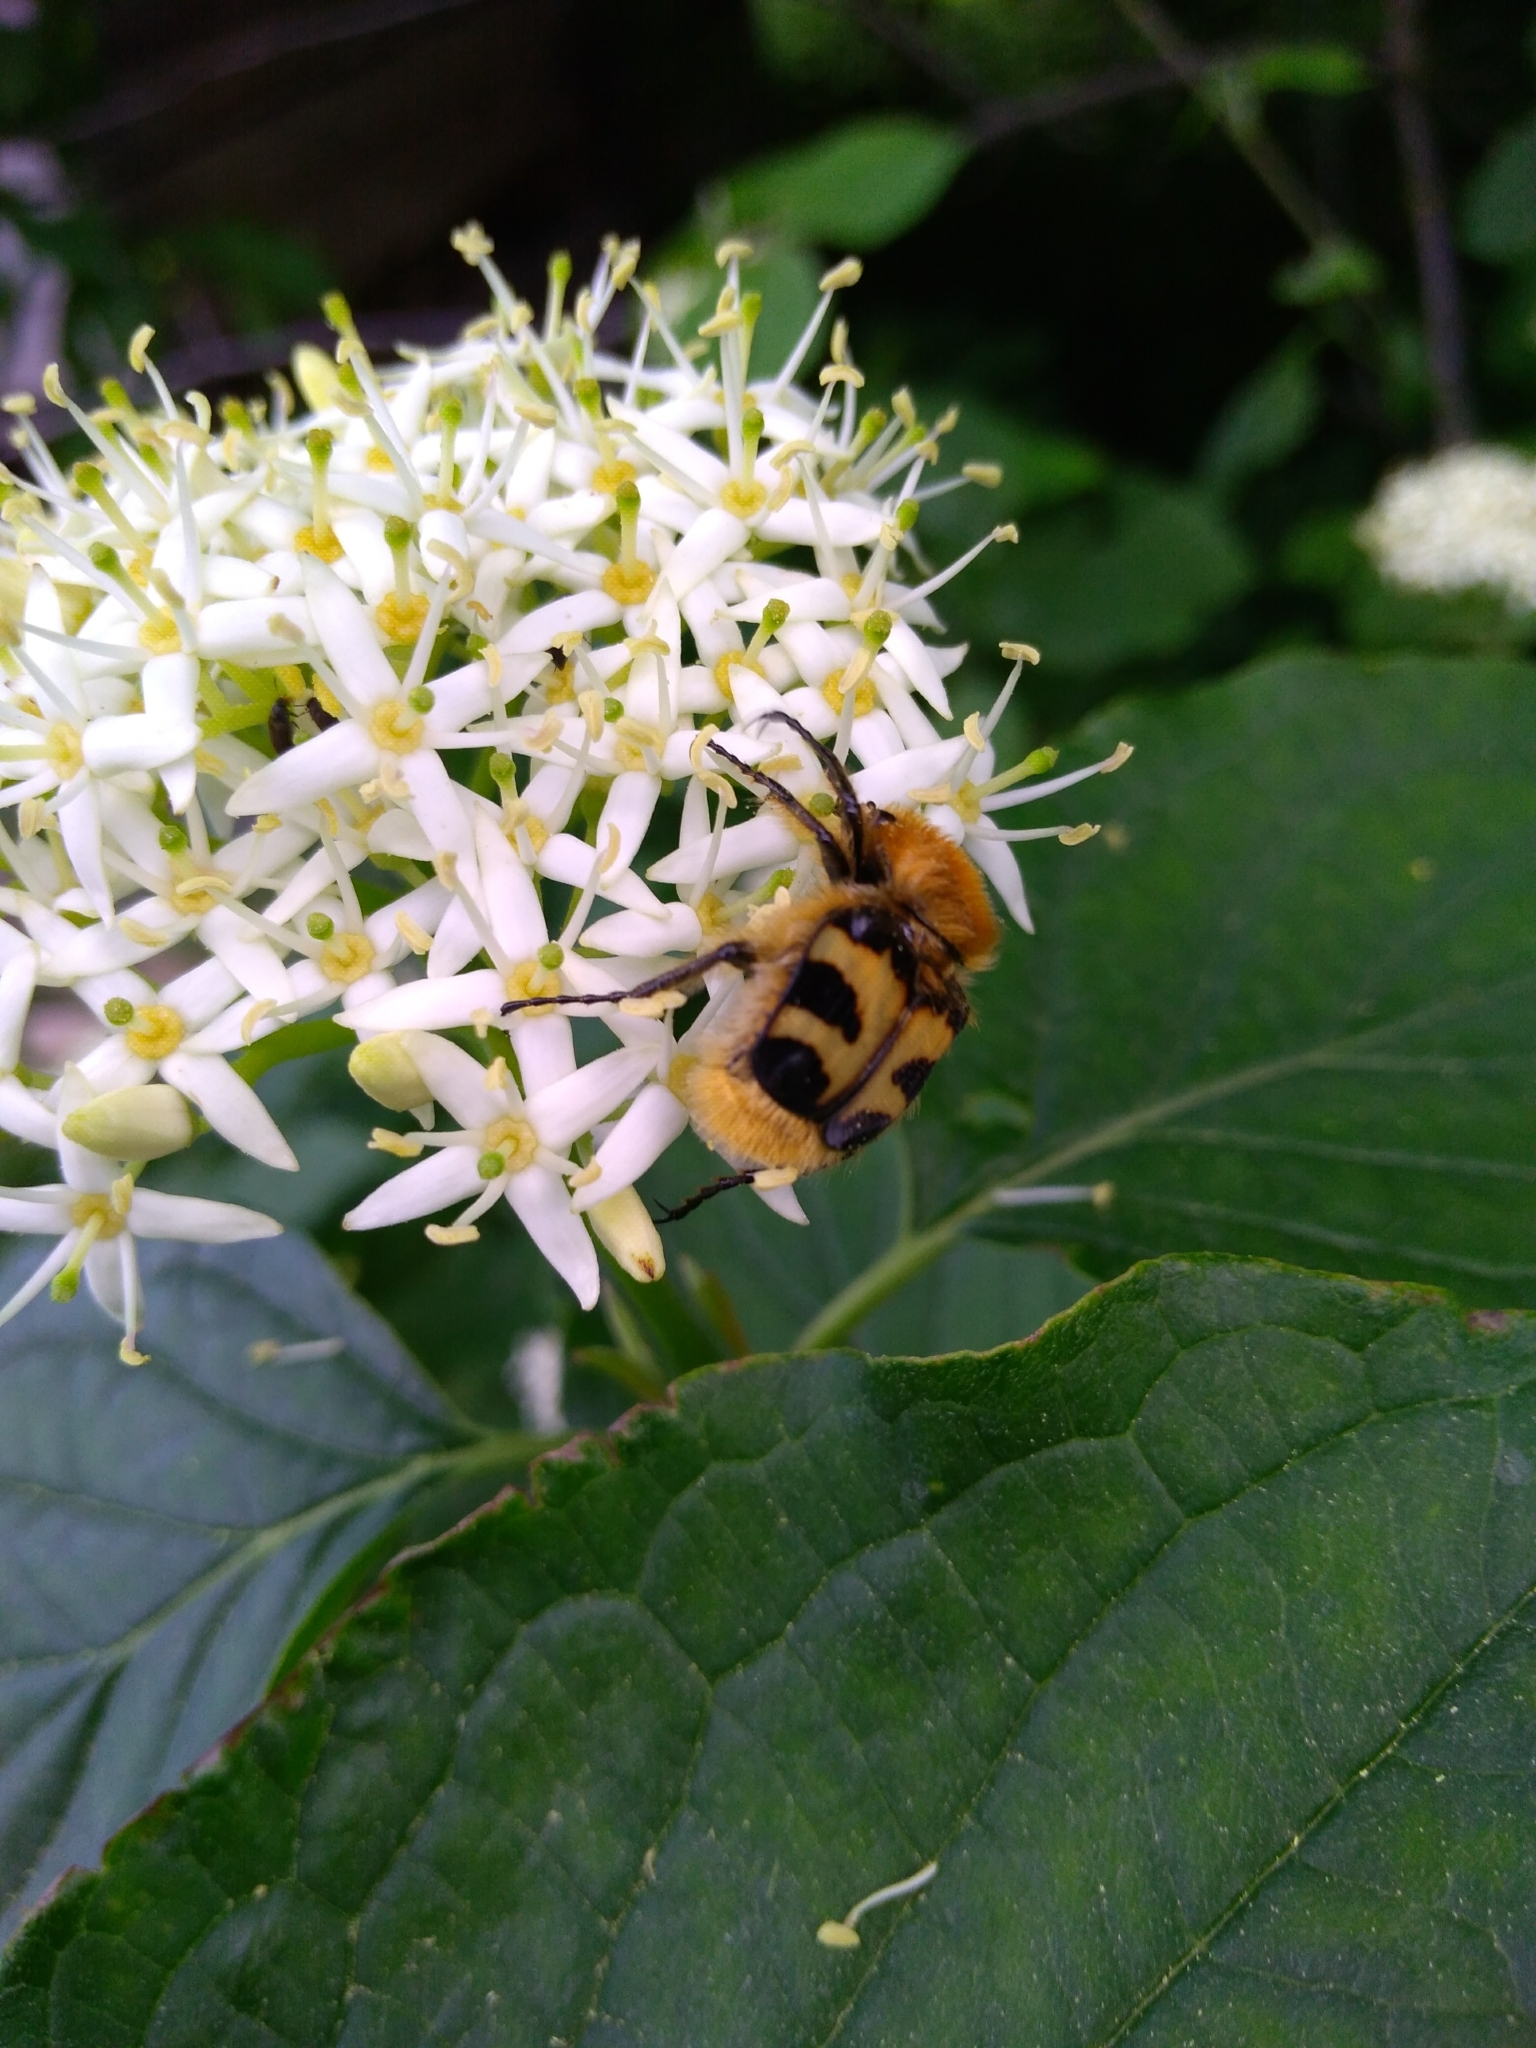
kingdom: Animalia
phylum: Arthropoda
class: Insecta
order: Coleoptera
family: Scarabaeidae
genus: Trichius
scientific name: Trichius fasciatus
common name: Bee beetle
